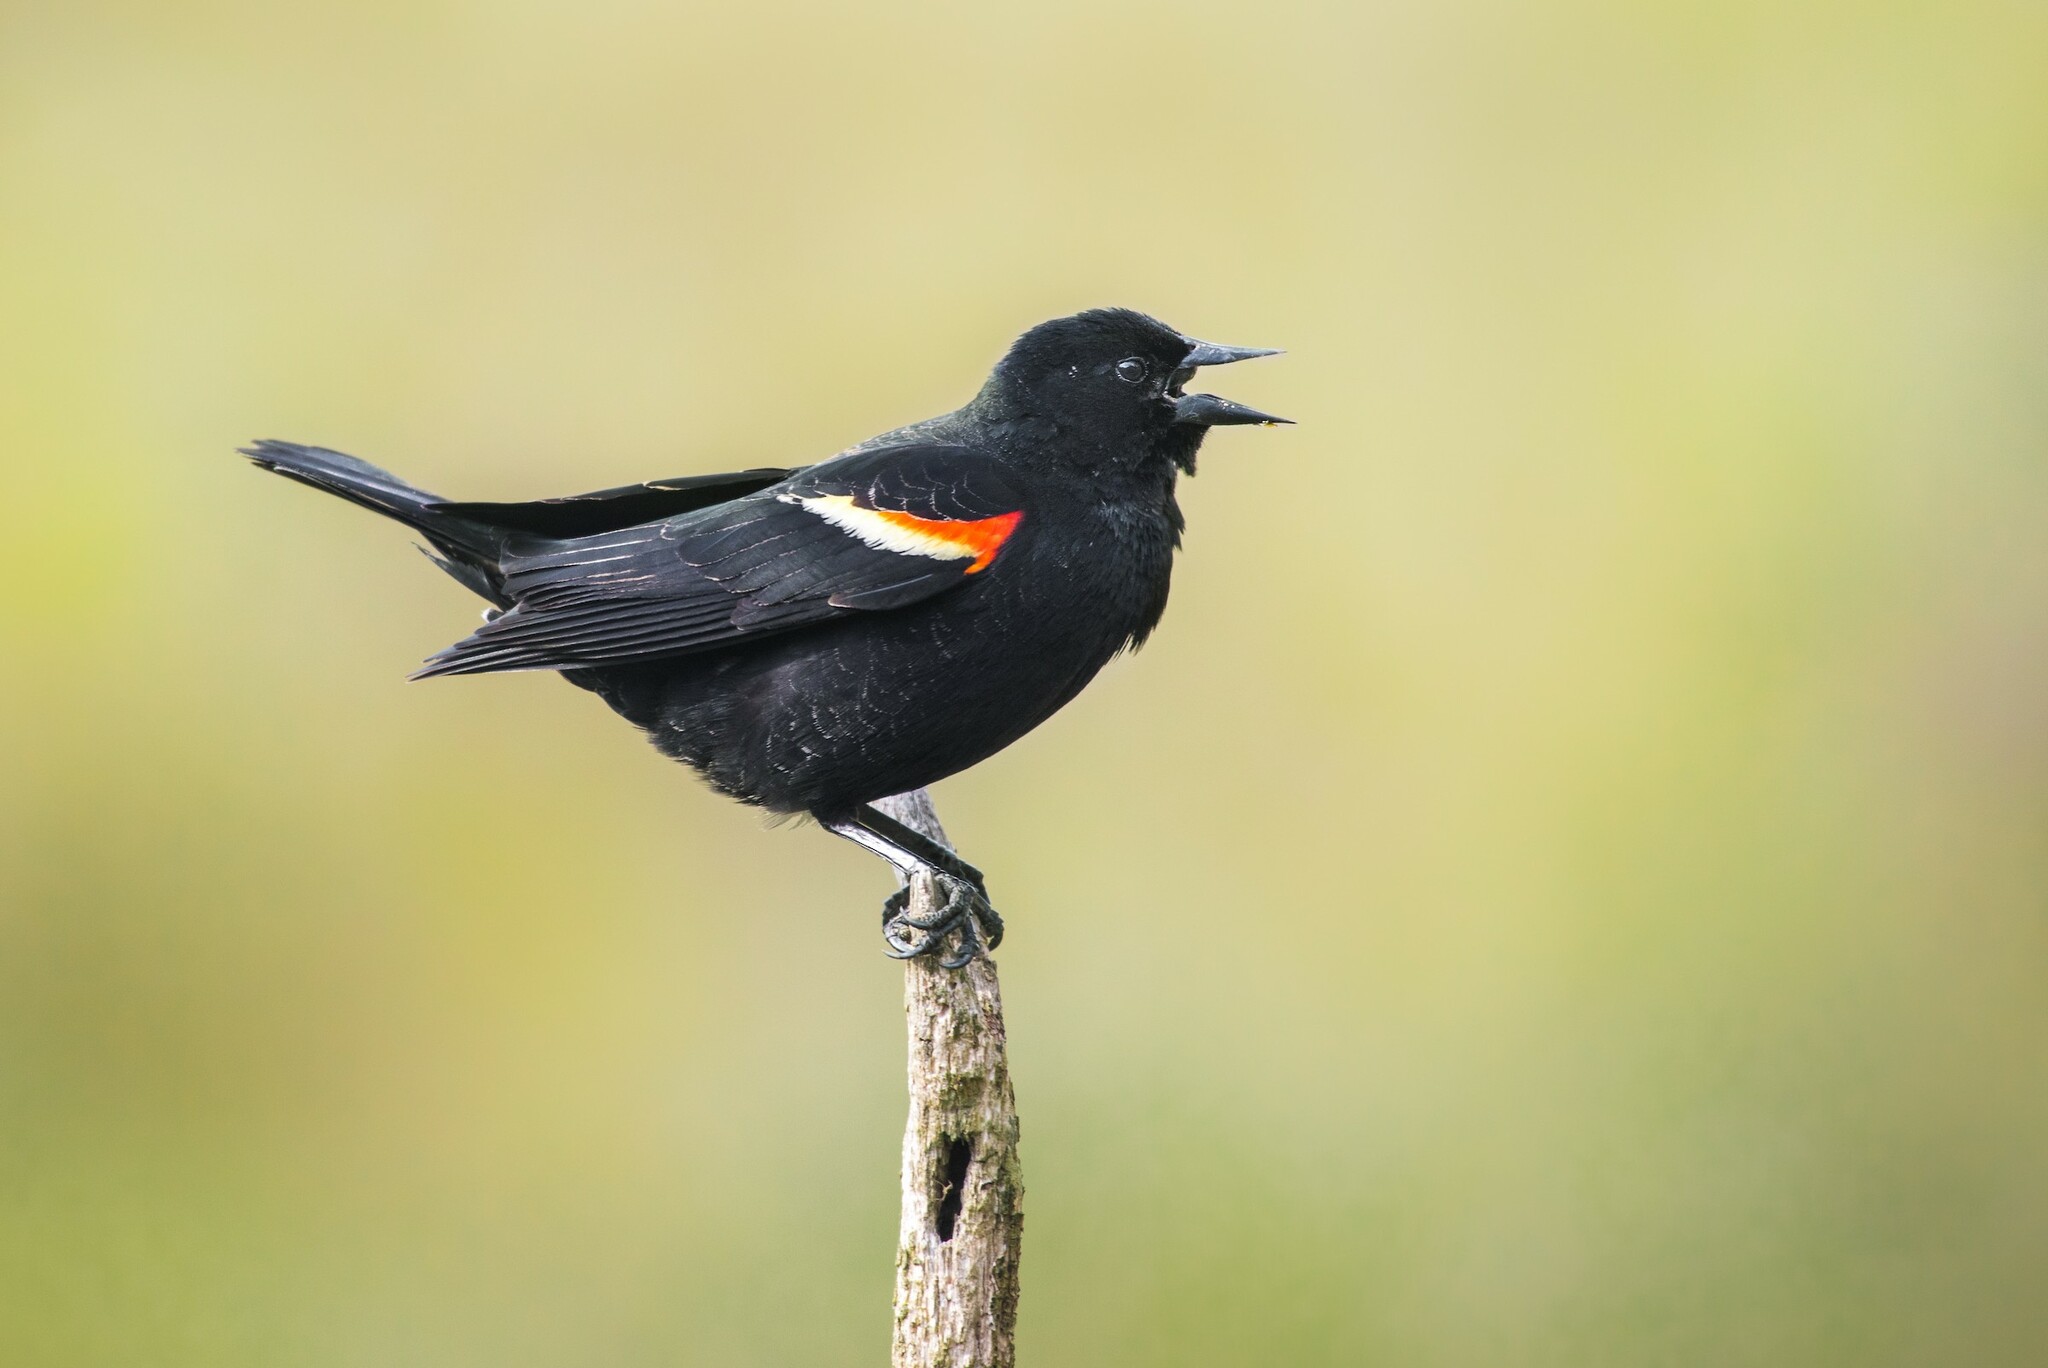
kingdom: Animalia
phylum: Chordata
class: Aves
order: Passeriformes
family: Icteridae
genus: Agelaius
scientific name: Agelaius phoeniceus
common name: Red-winged blackbird
